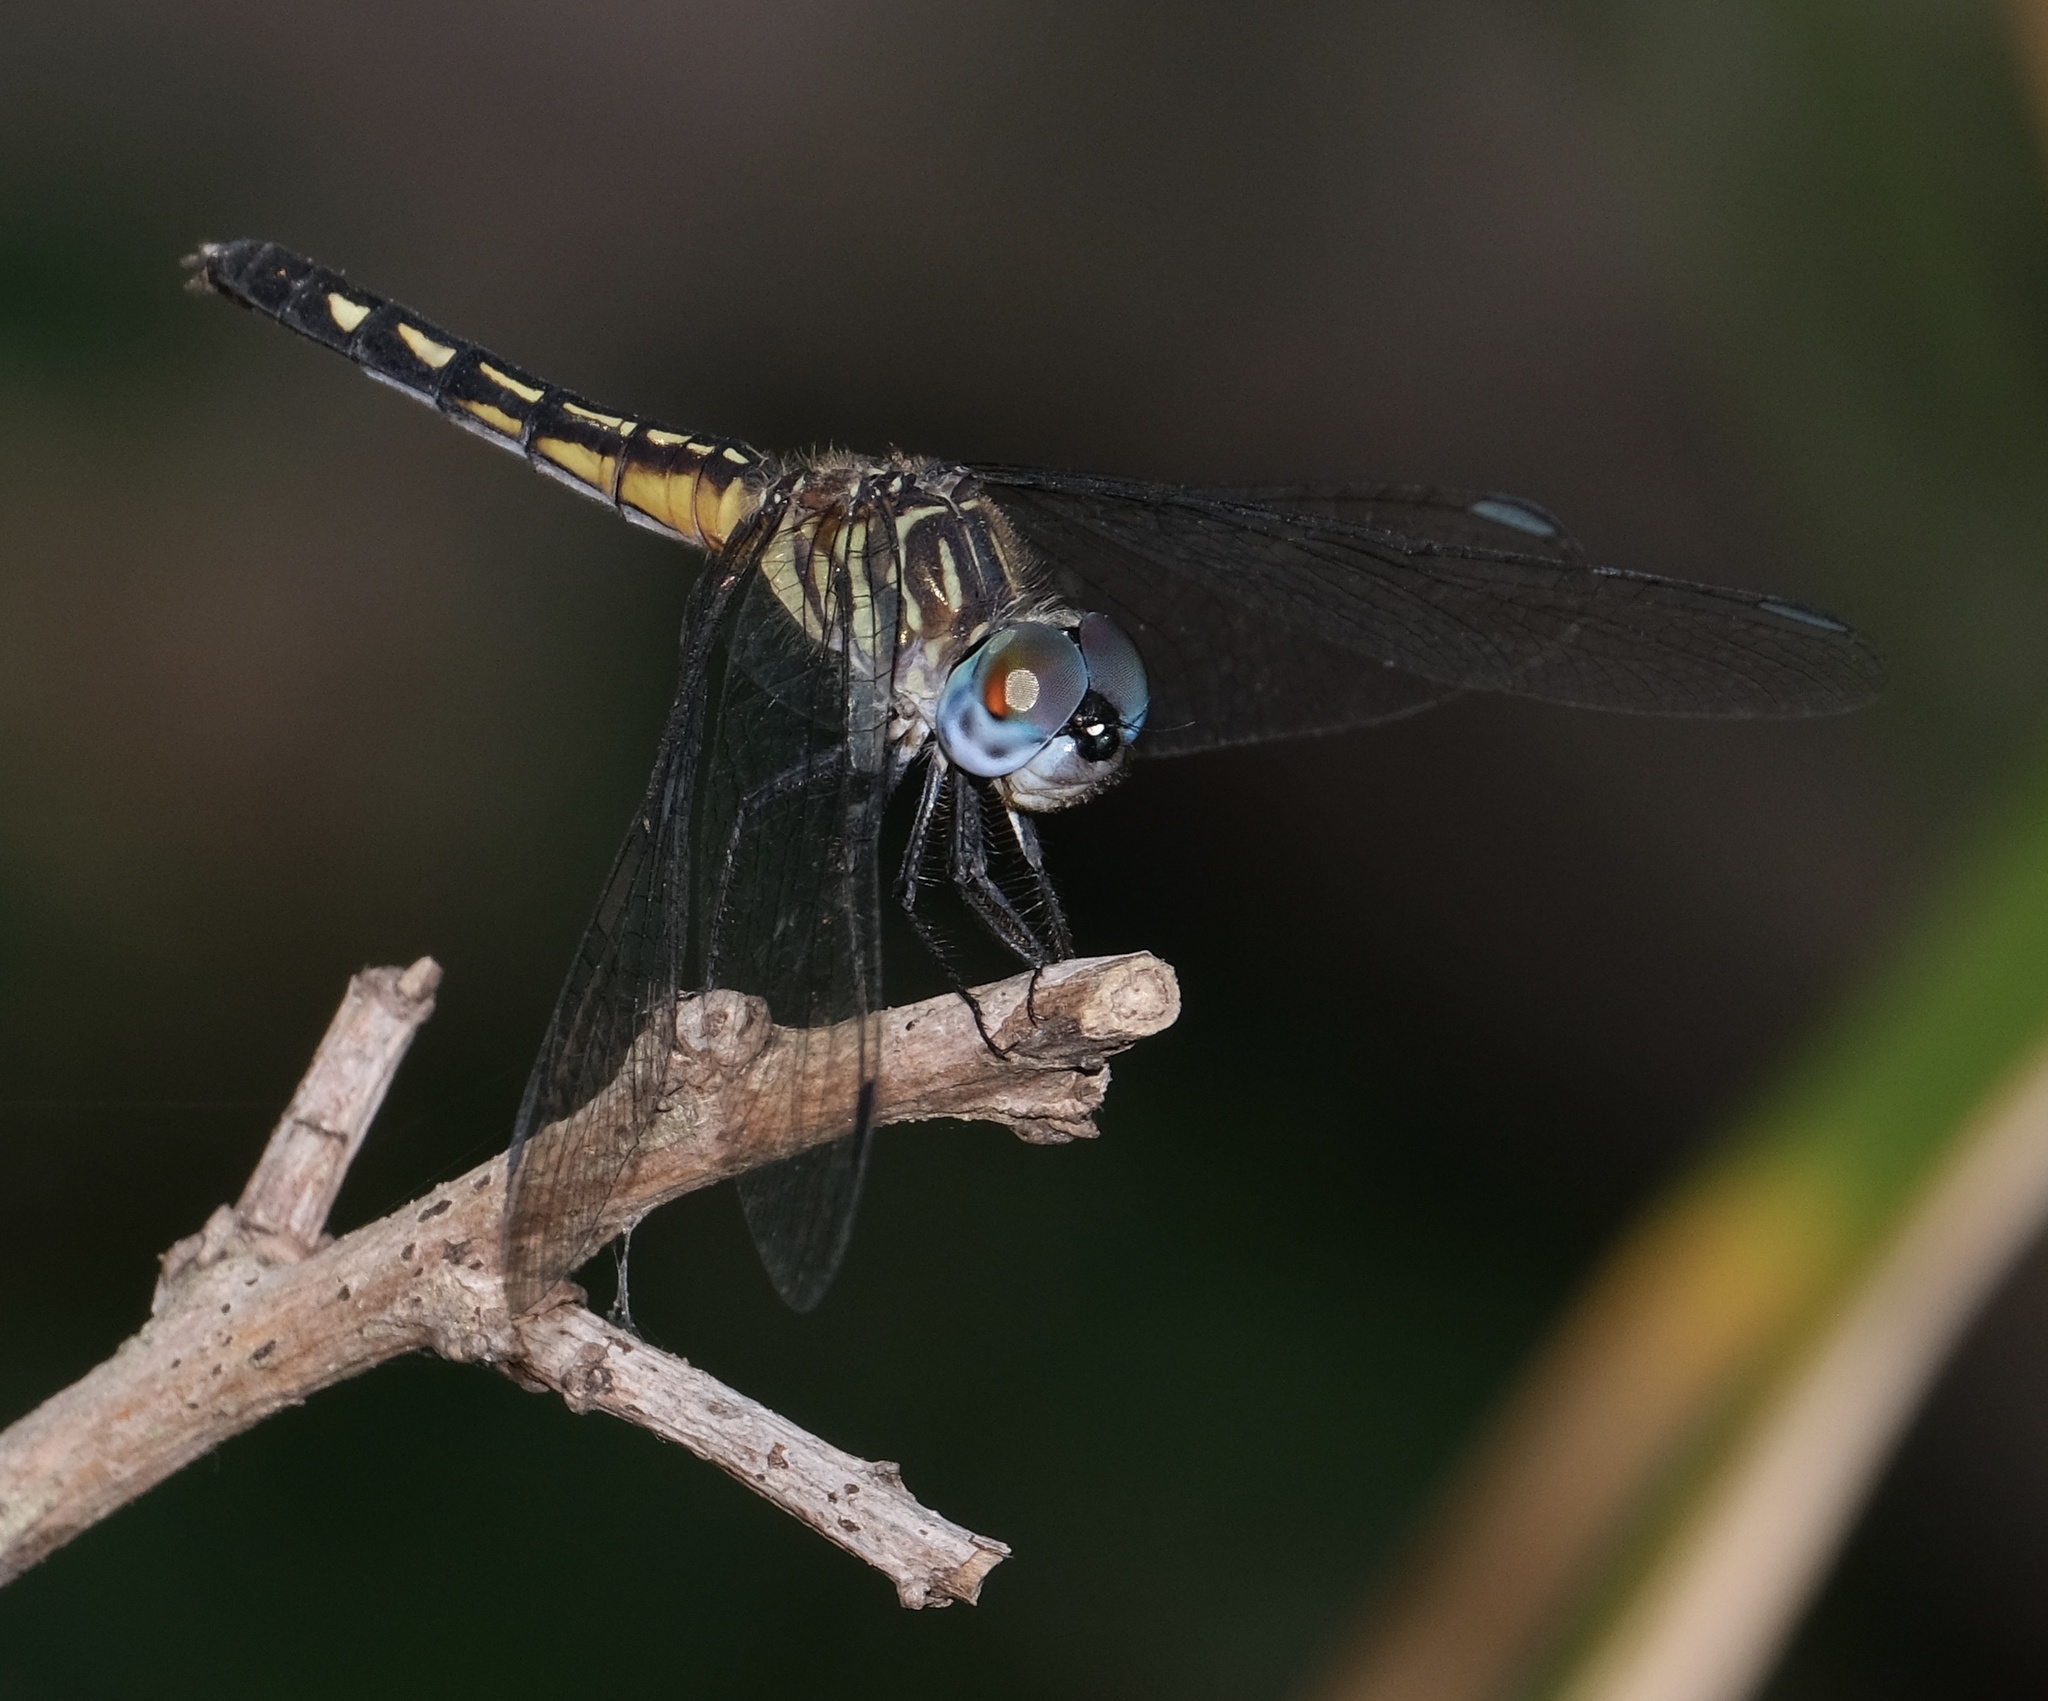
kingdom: Animalia
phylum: Arthropoda
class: Insecta
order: Odonata
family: Libellulidae
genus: Pachydiplax
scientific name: Pachydiplax longipennis
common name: Blue dasher
